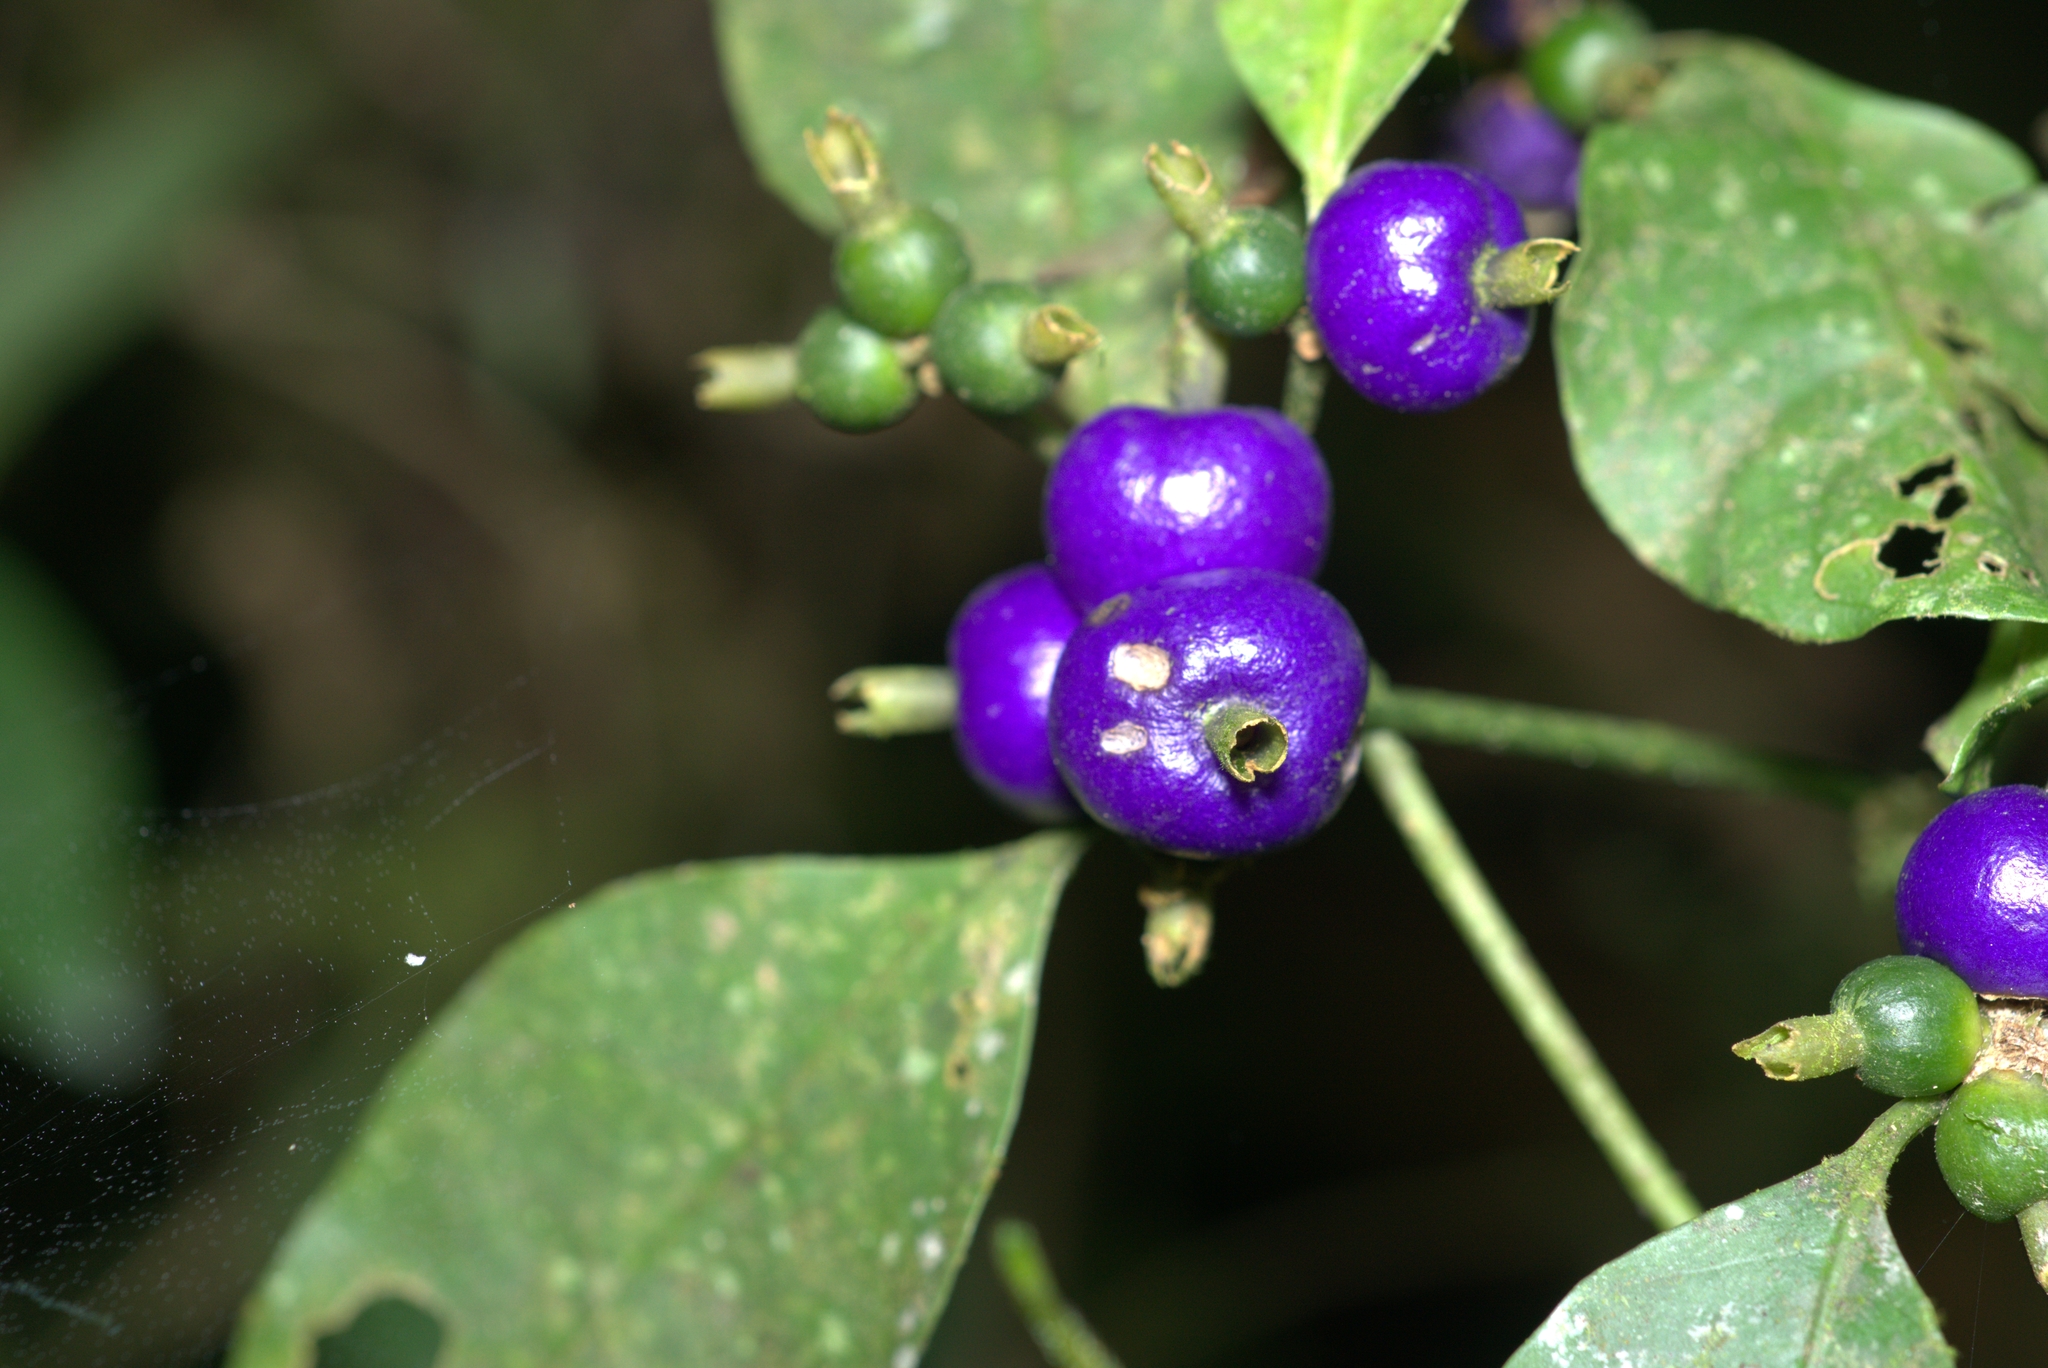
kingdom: Plantae
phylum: Tracheophyta
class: Magnoliopsida
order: Gentianales
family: Rubiaceae
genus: Psychotria
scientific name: Psychotria suterella
